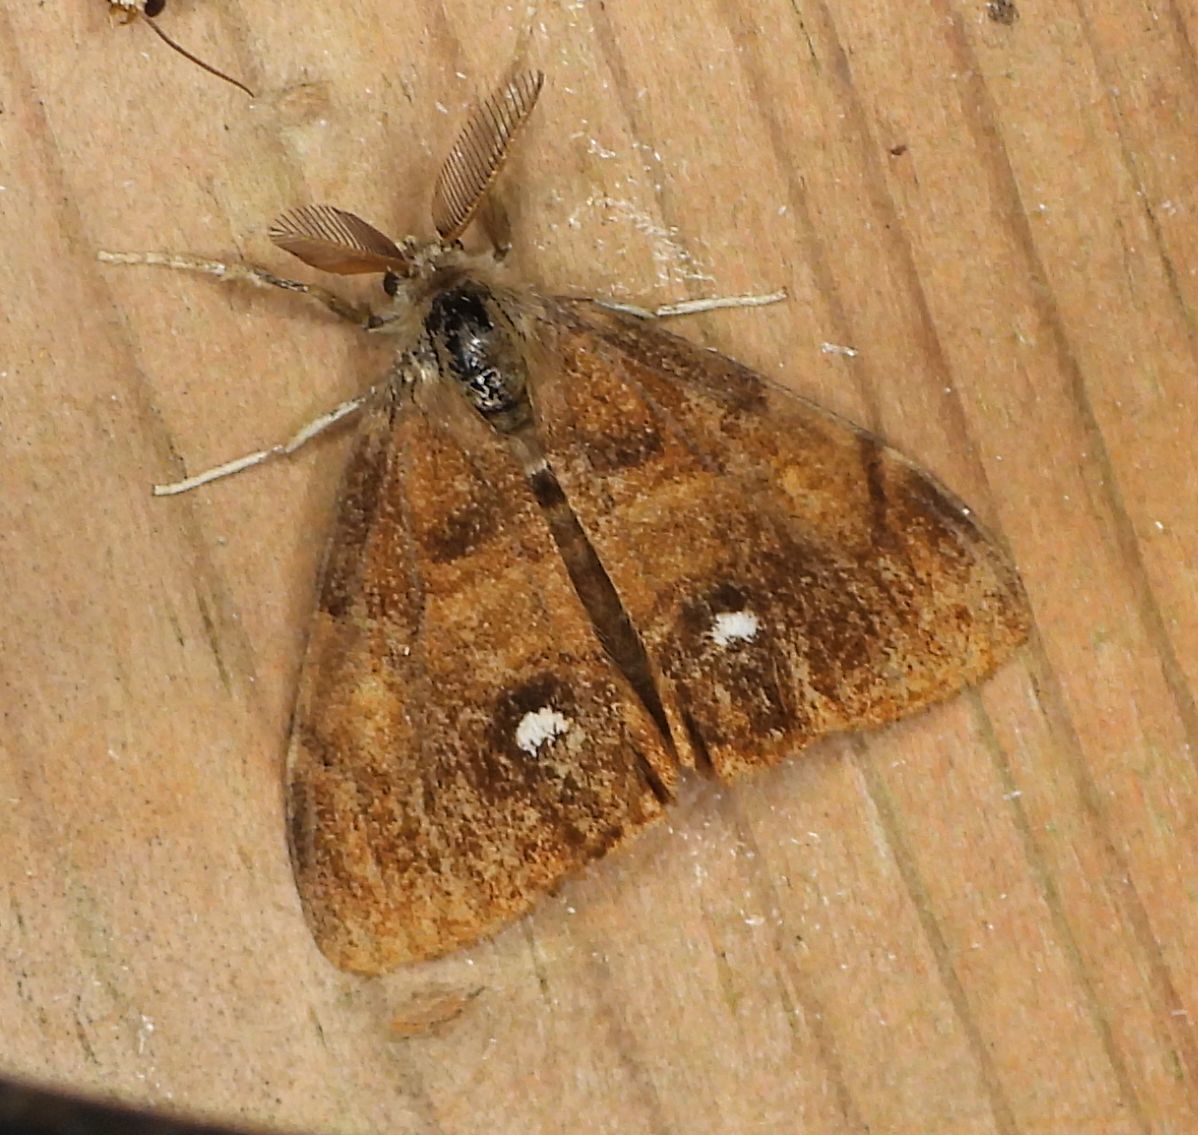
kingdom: Animalia
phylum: Arthropoda
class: Insecta
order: Lepidoptera
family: Erebidae
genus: Orgyia
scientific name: Orgyia antiqua
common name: Vapourer
